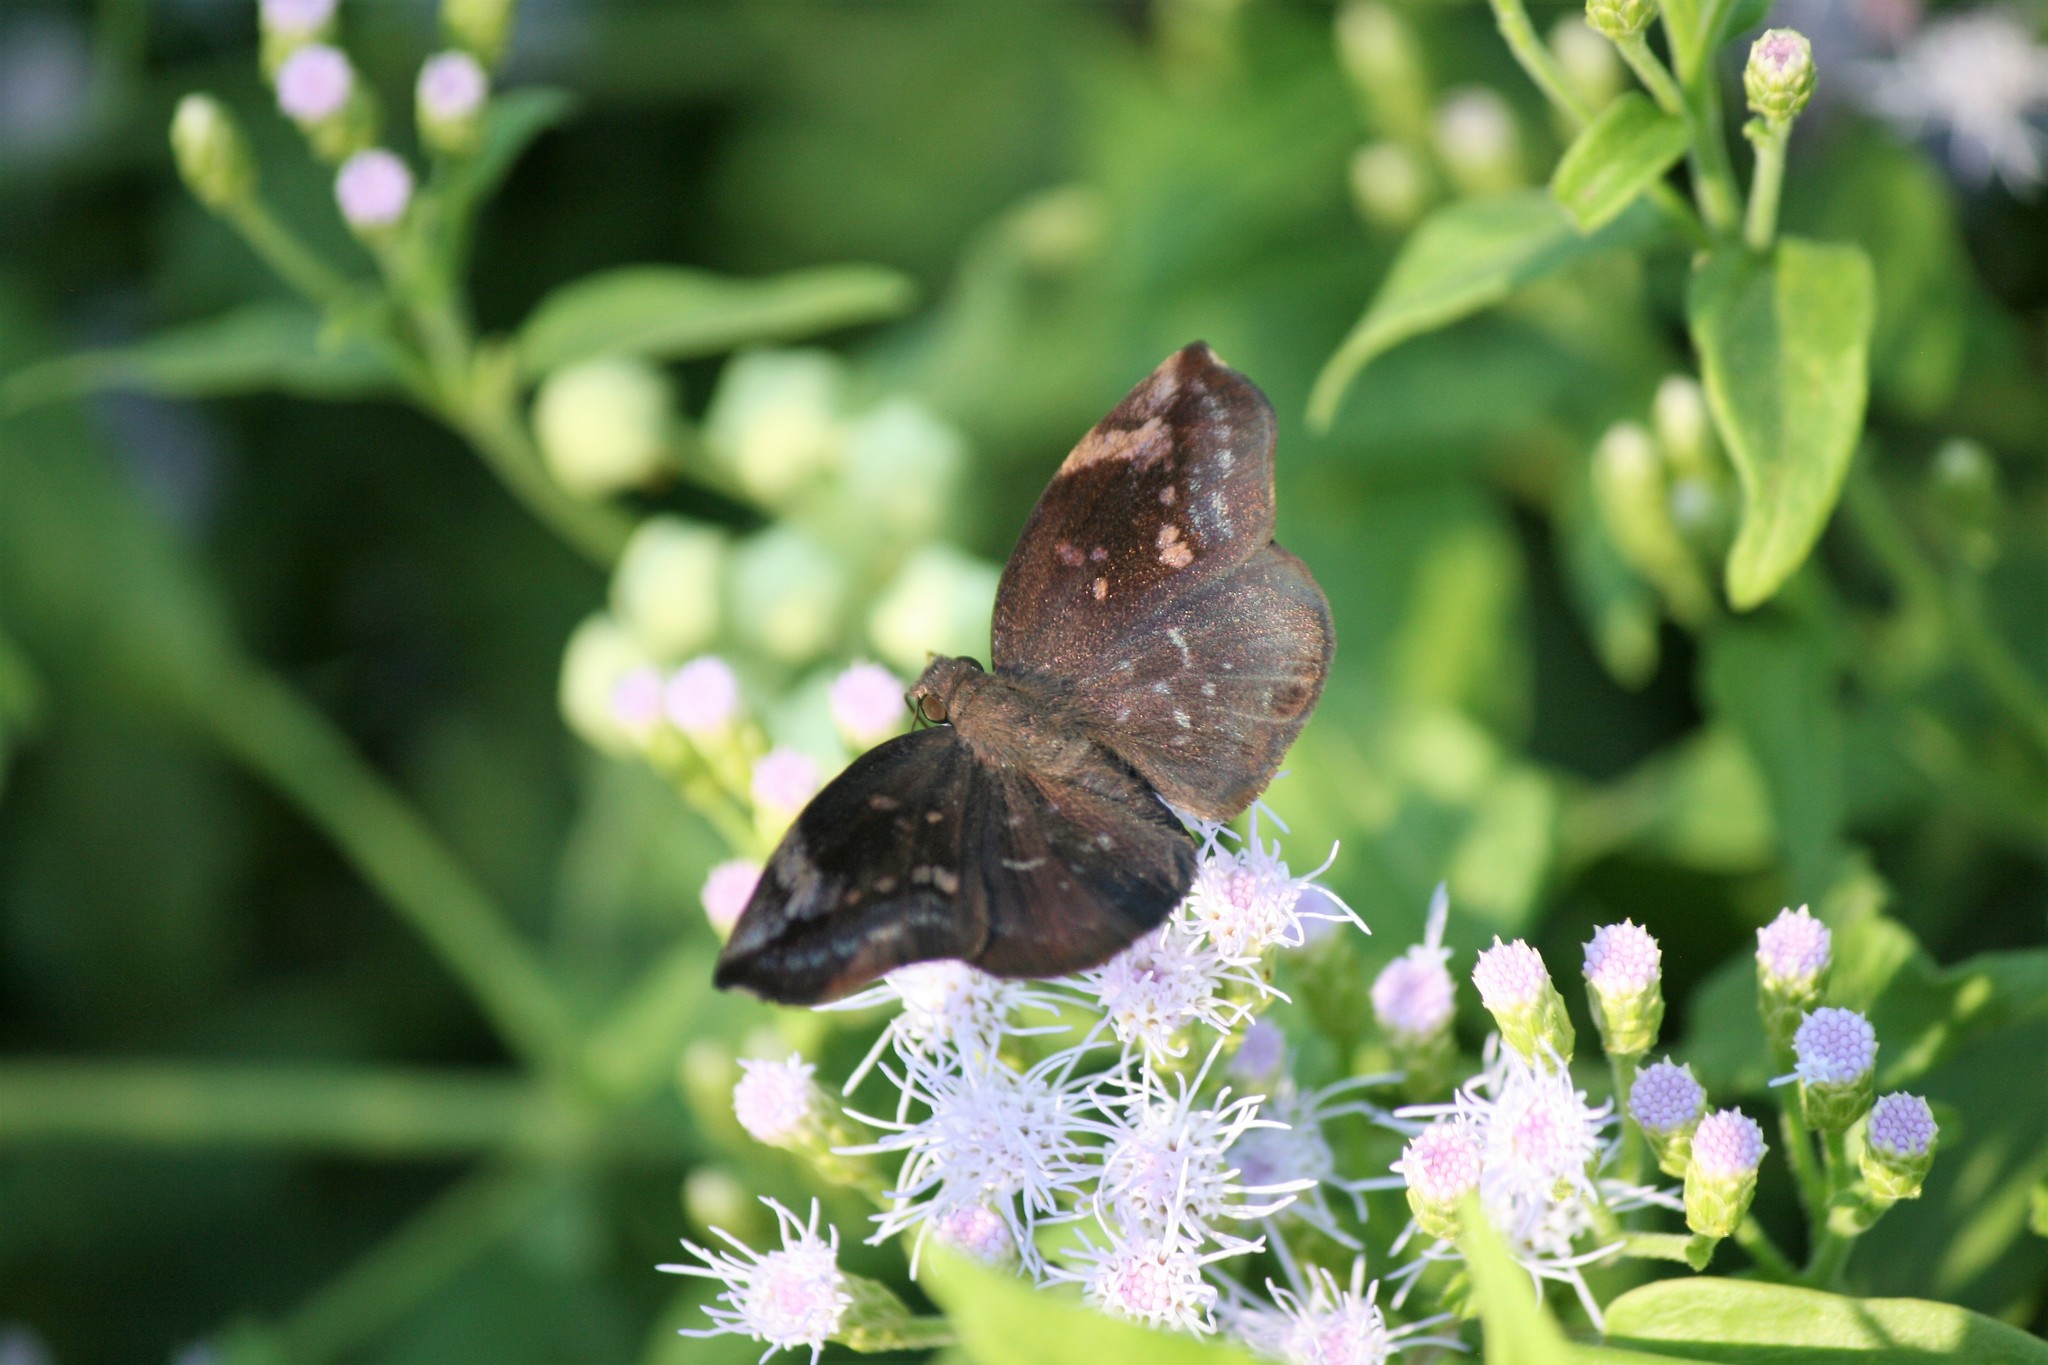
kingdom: Animalia
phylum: Arthropoda
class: Insecta
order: Lepidoptera
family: Hesperiidae
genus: Achlyodes
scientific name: Achlyodes thraso
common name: Sickle-winged skipper
